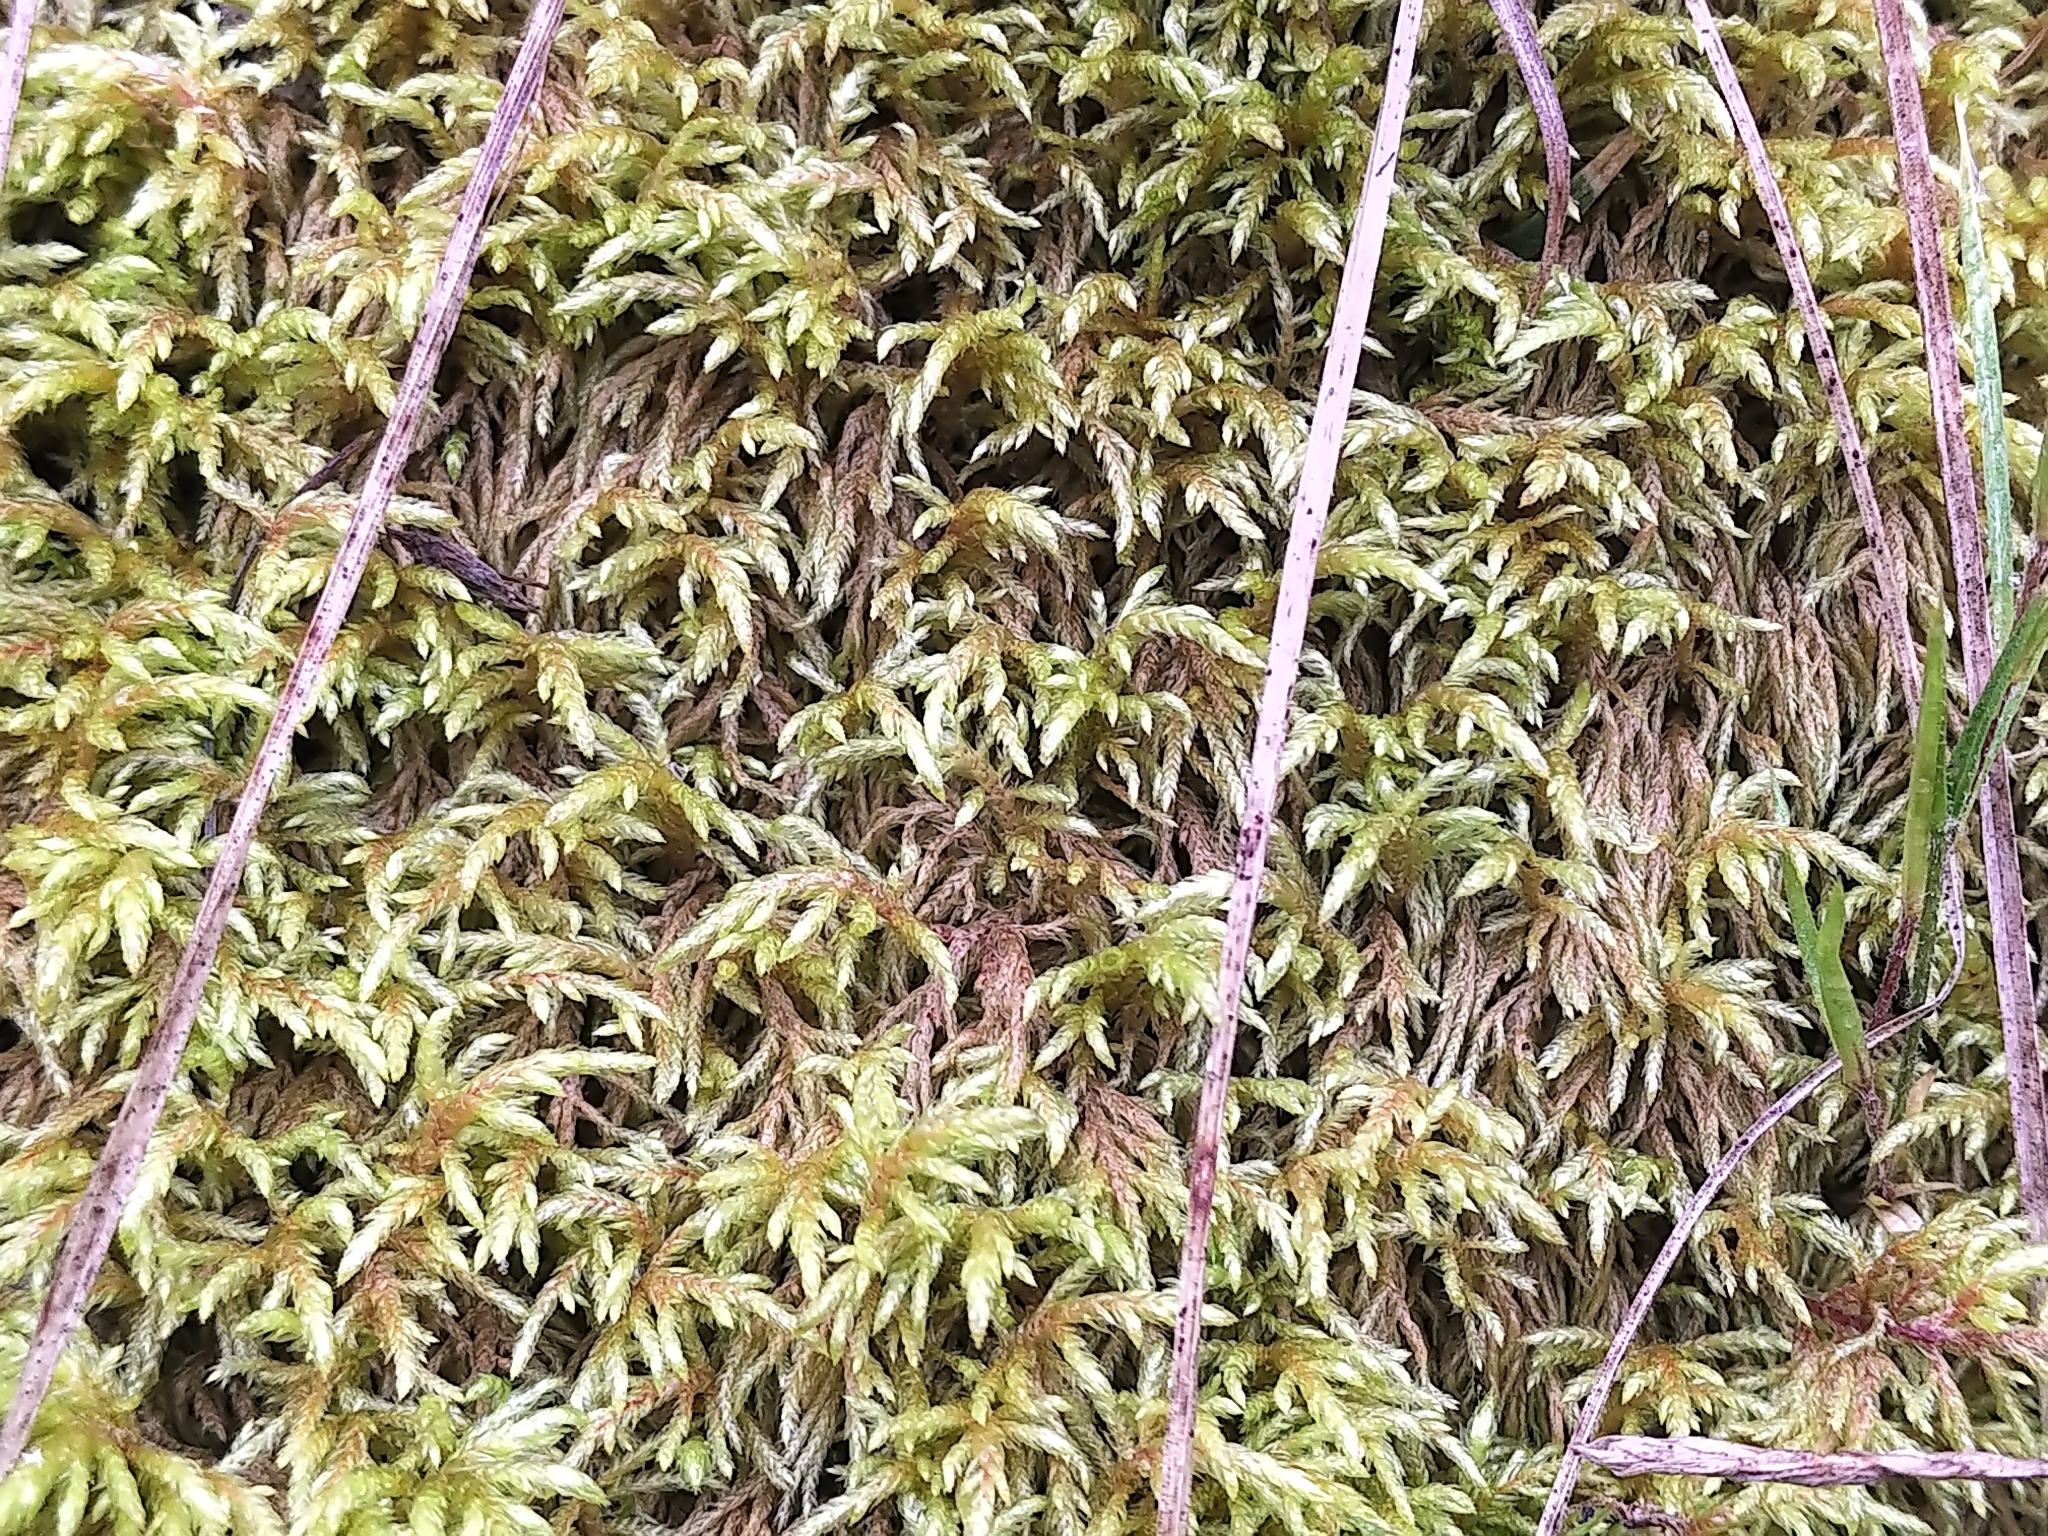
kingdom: Plantae
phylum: Bryophyta
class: Bryopsida
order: Hypnales
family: Hylocomiaceae
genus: Pleurozium
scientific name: Pleurozium schreberi
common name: Red-stemmed feather moss
